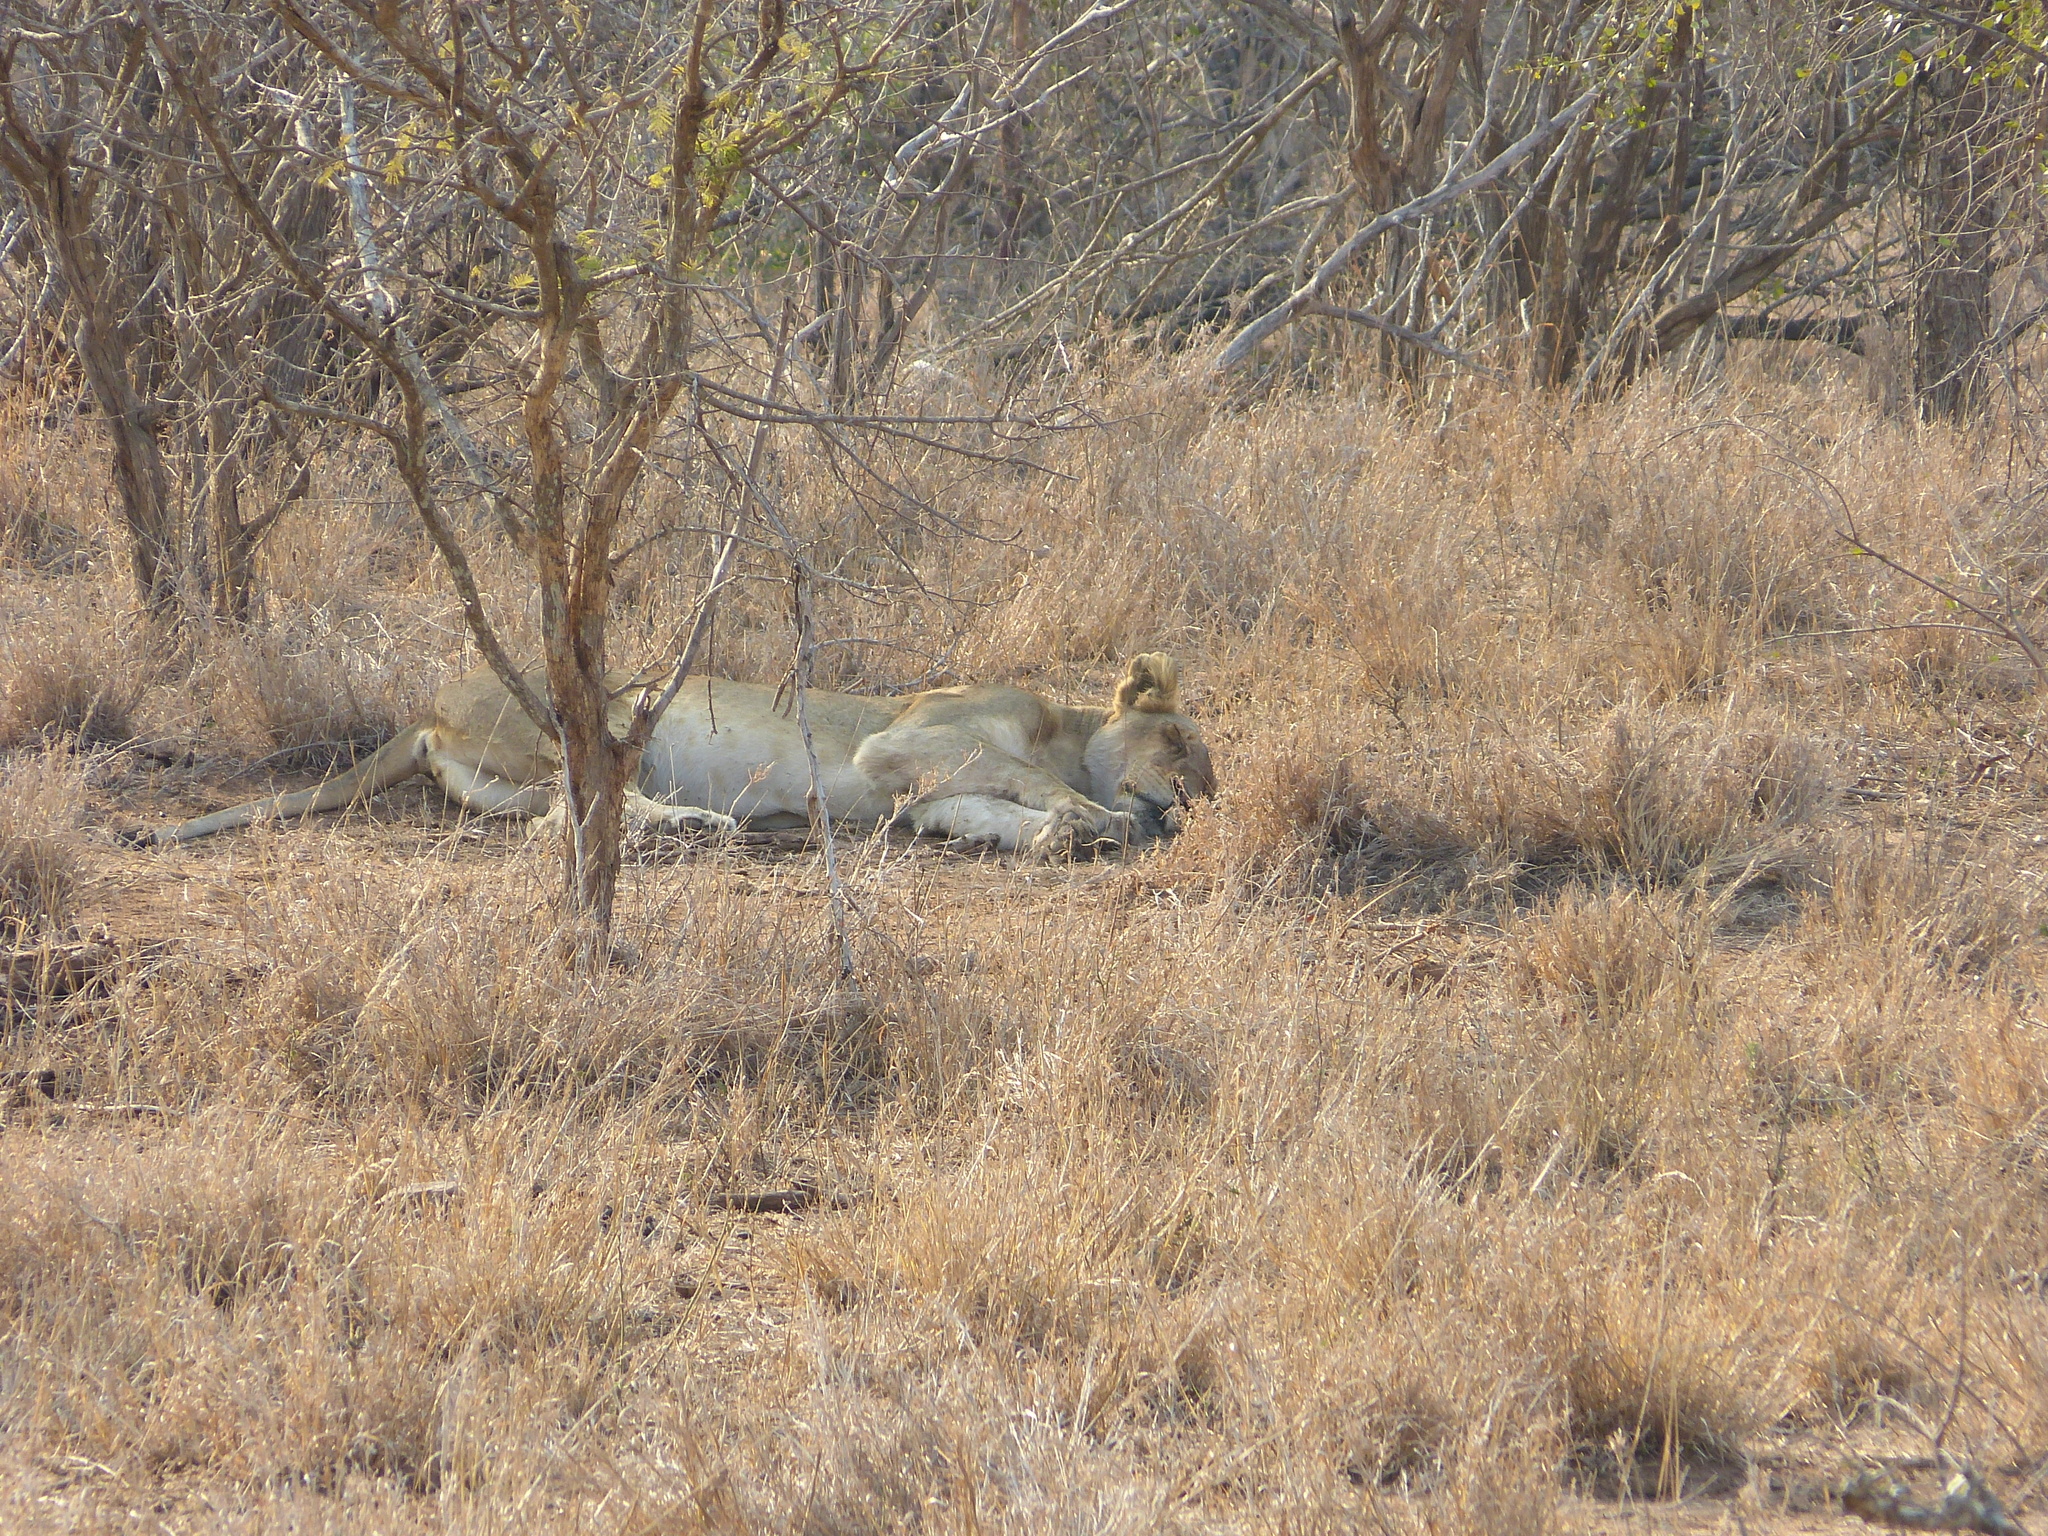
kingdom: Animalia
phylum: Chordata
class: Mammalia
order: Carnivora
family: Felidae
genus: Panthera
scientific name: Panthera leo
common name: Lion
